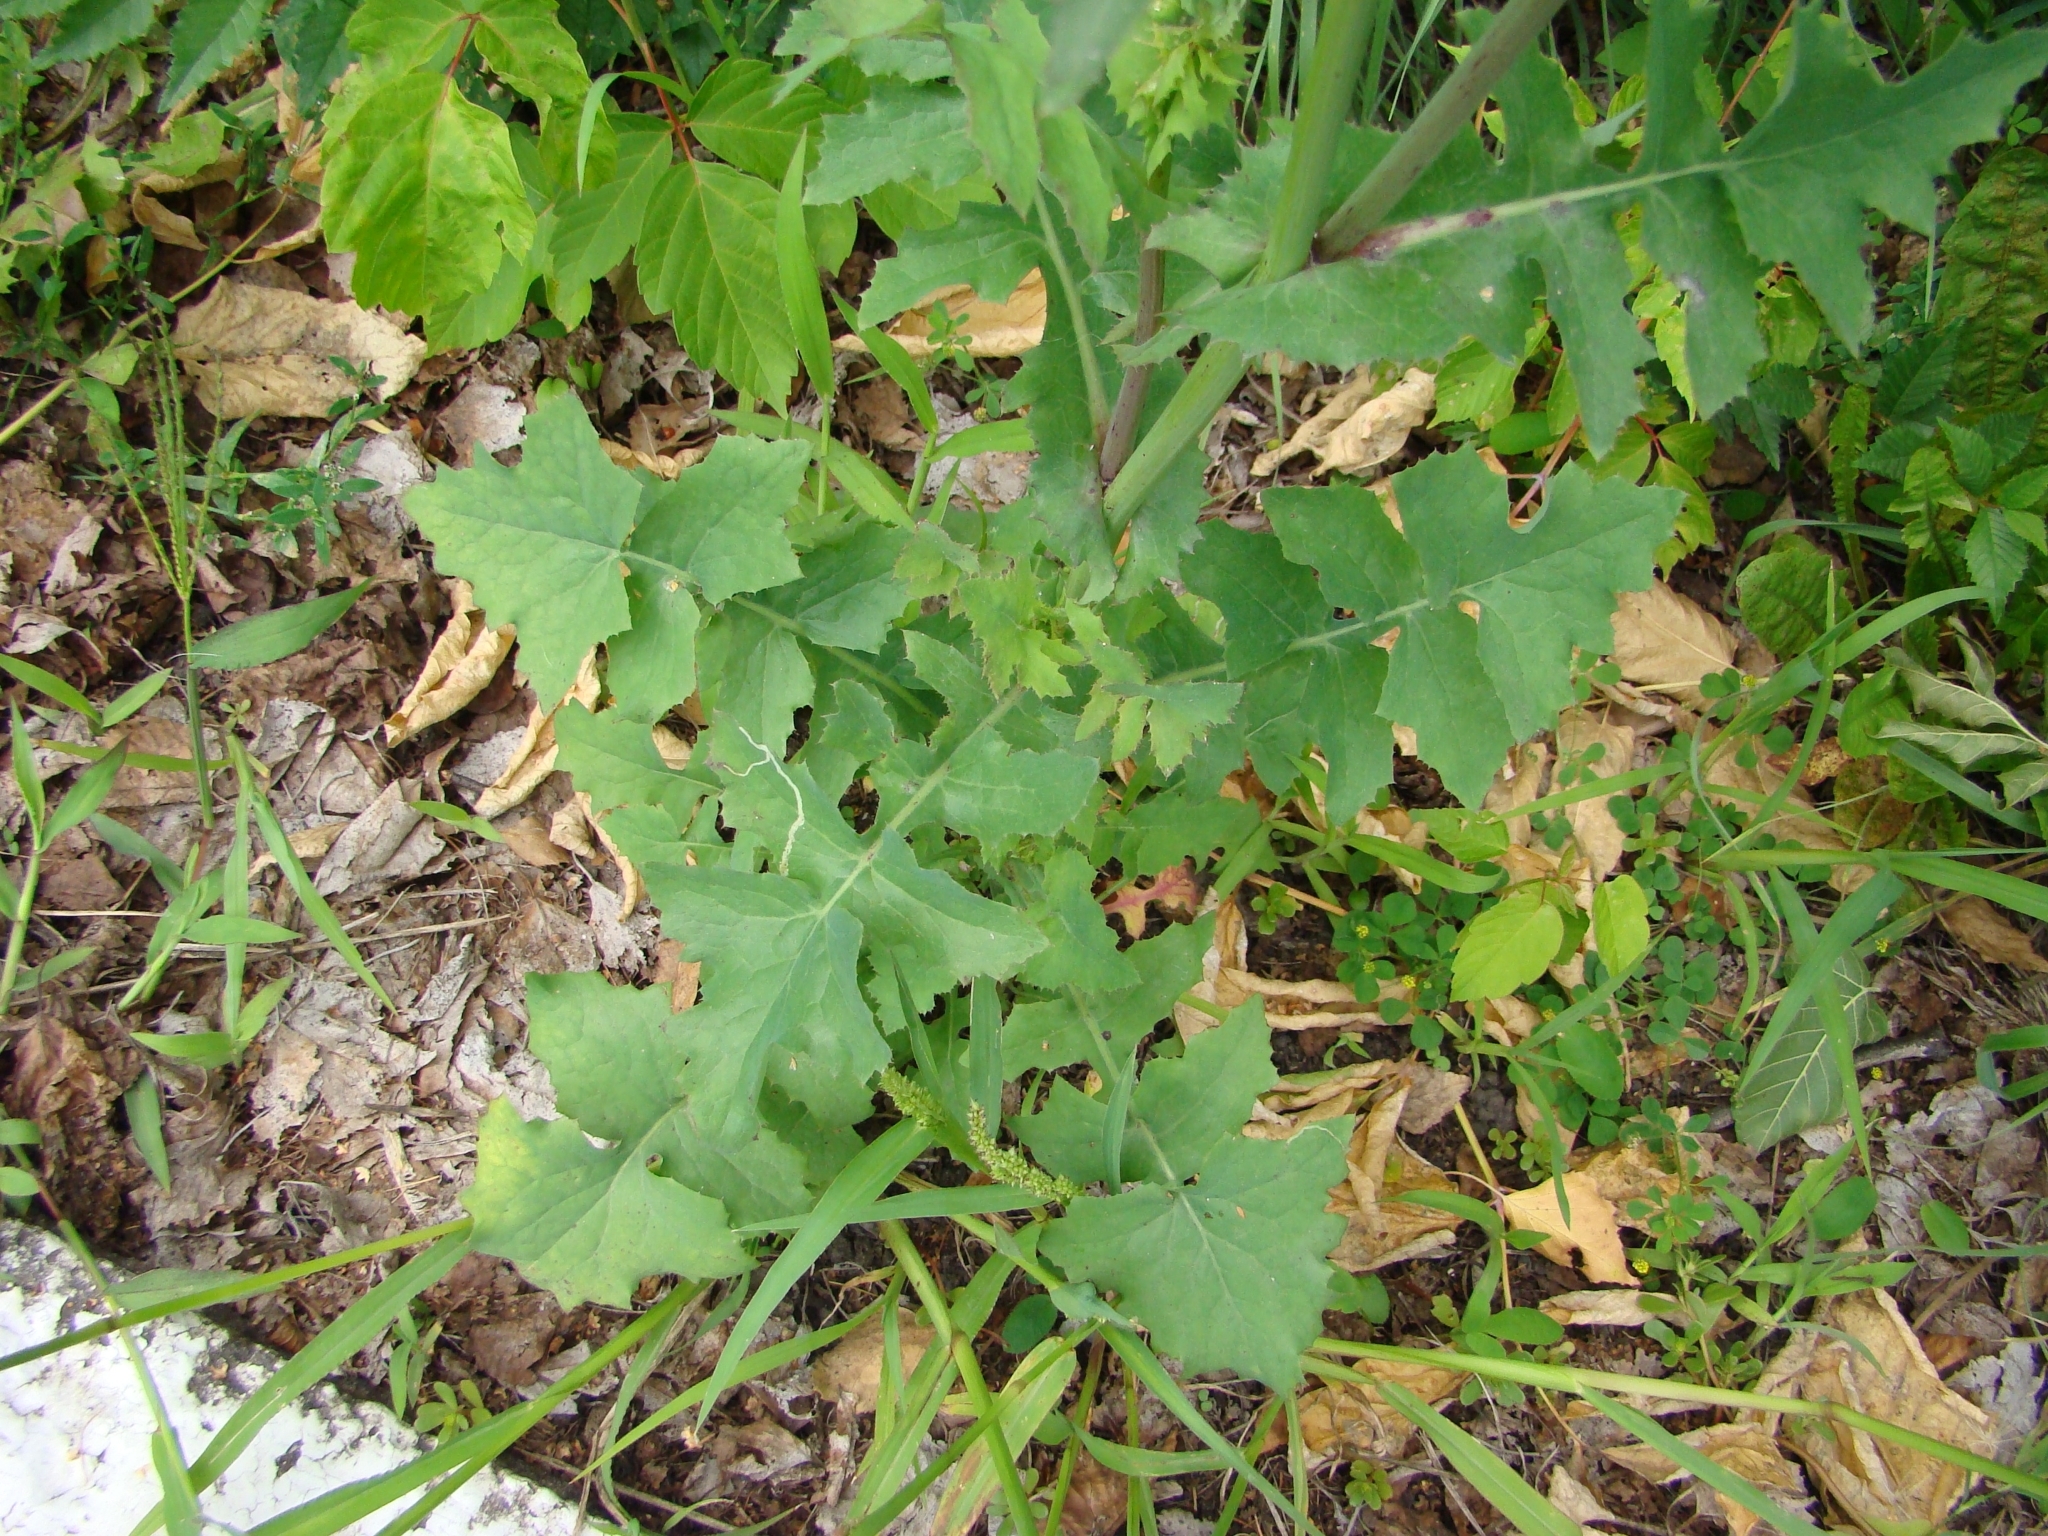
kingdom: Plantae
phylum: Tracheophyta
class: Magnoliopsida
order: Asterales
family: Asteraceae
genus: Sonchus
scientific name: Sonchus oleraceus
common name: Common sowthistle
